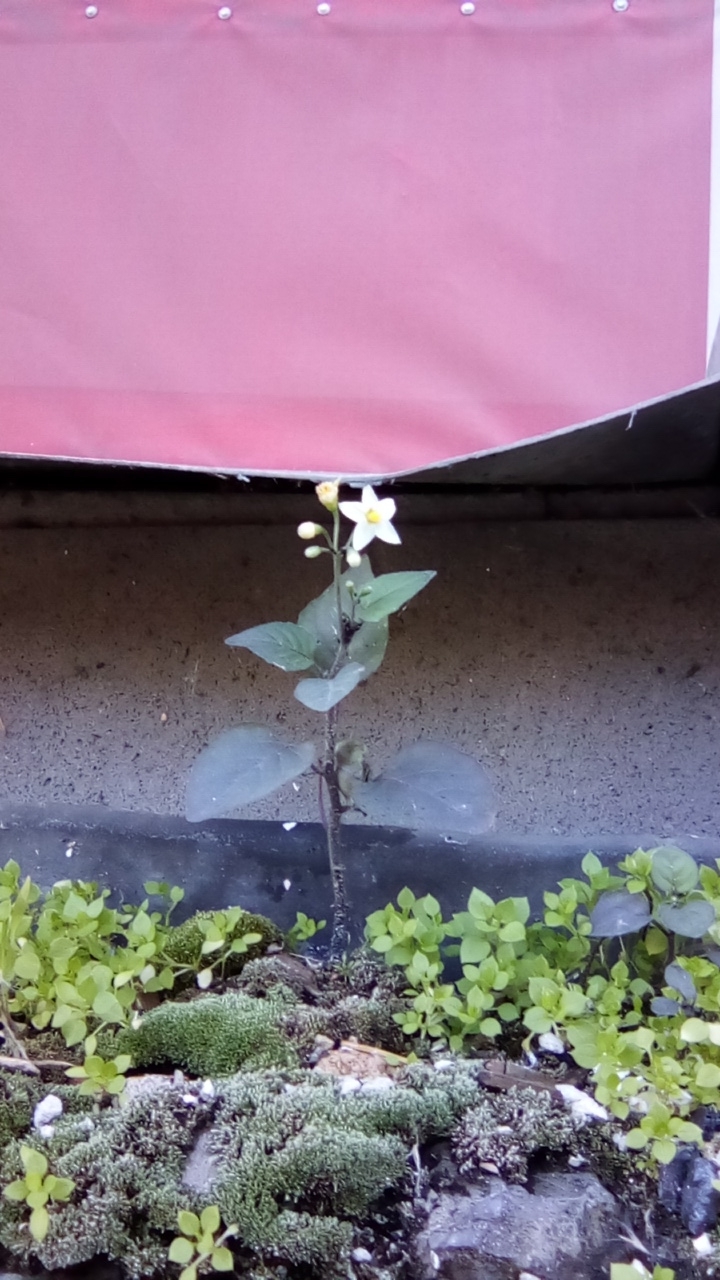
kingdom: Plantae
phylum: Tracheophyta
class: Magnoliopsida
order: Solanales
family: Solanaceae
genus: Solanum
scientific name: Solanum nigrum
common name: Black nightshade
